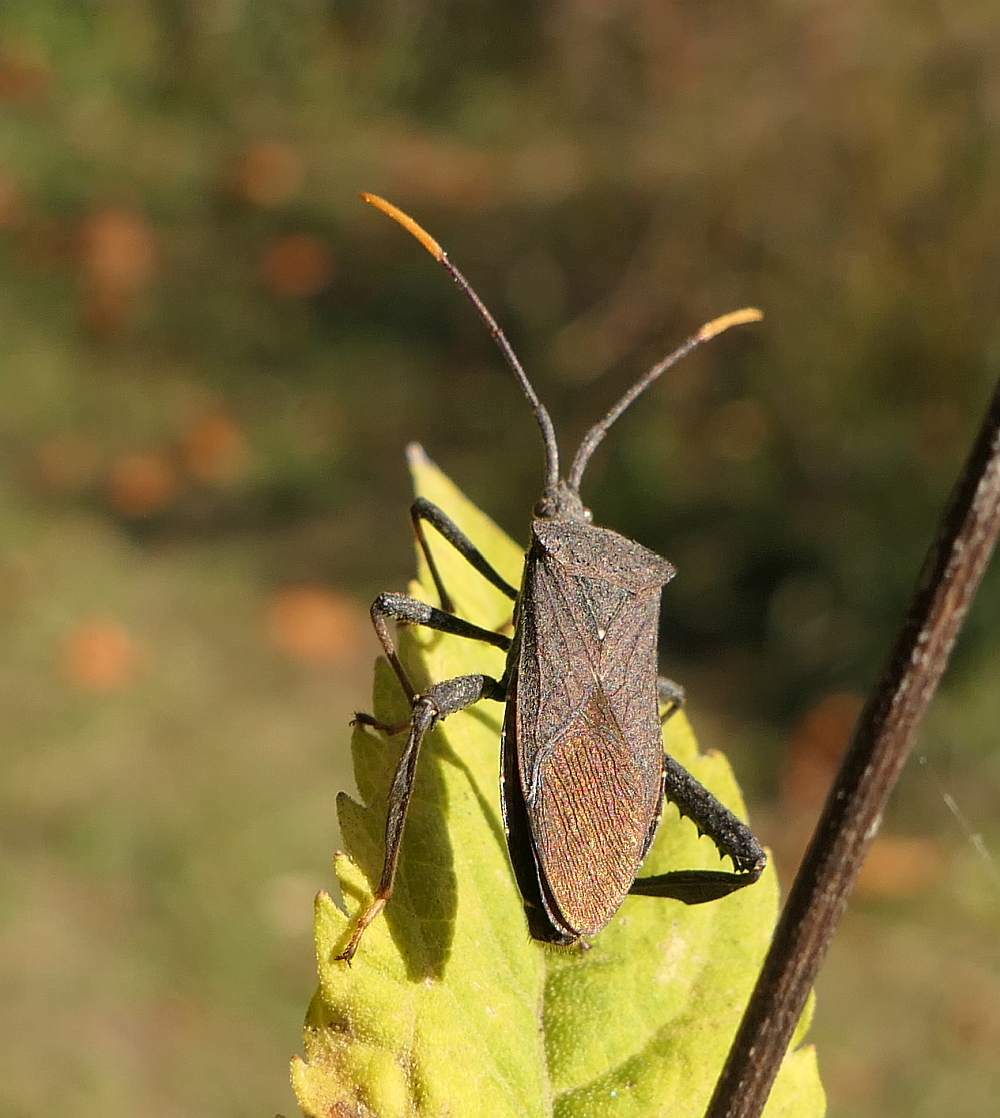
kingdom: Animalia
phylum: Arthropoda
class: Insecta
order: Hemiptera
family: Coreidae
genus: Acanthocephala
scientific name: Acanthocephala terminalis
